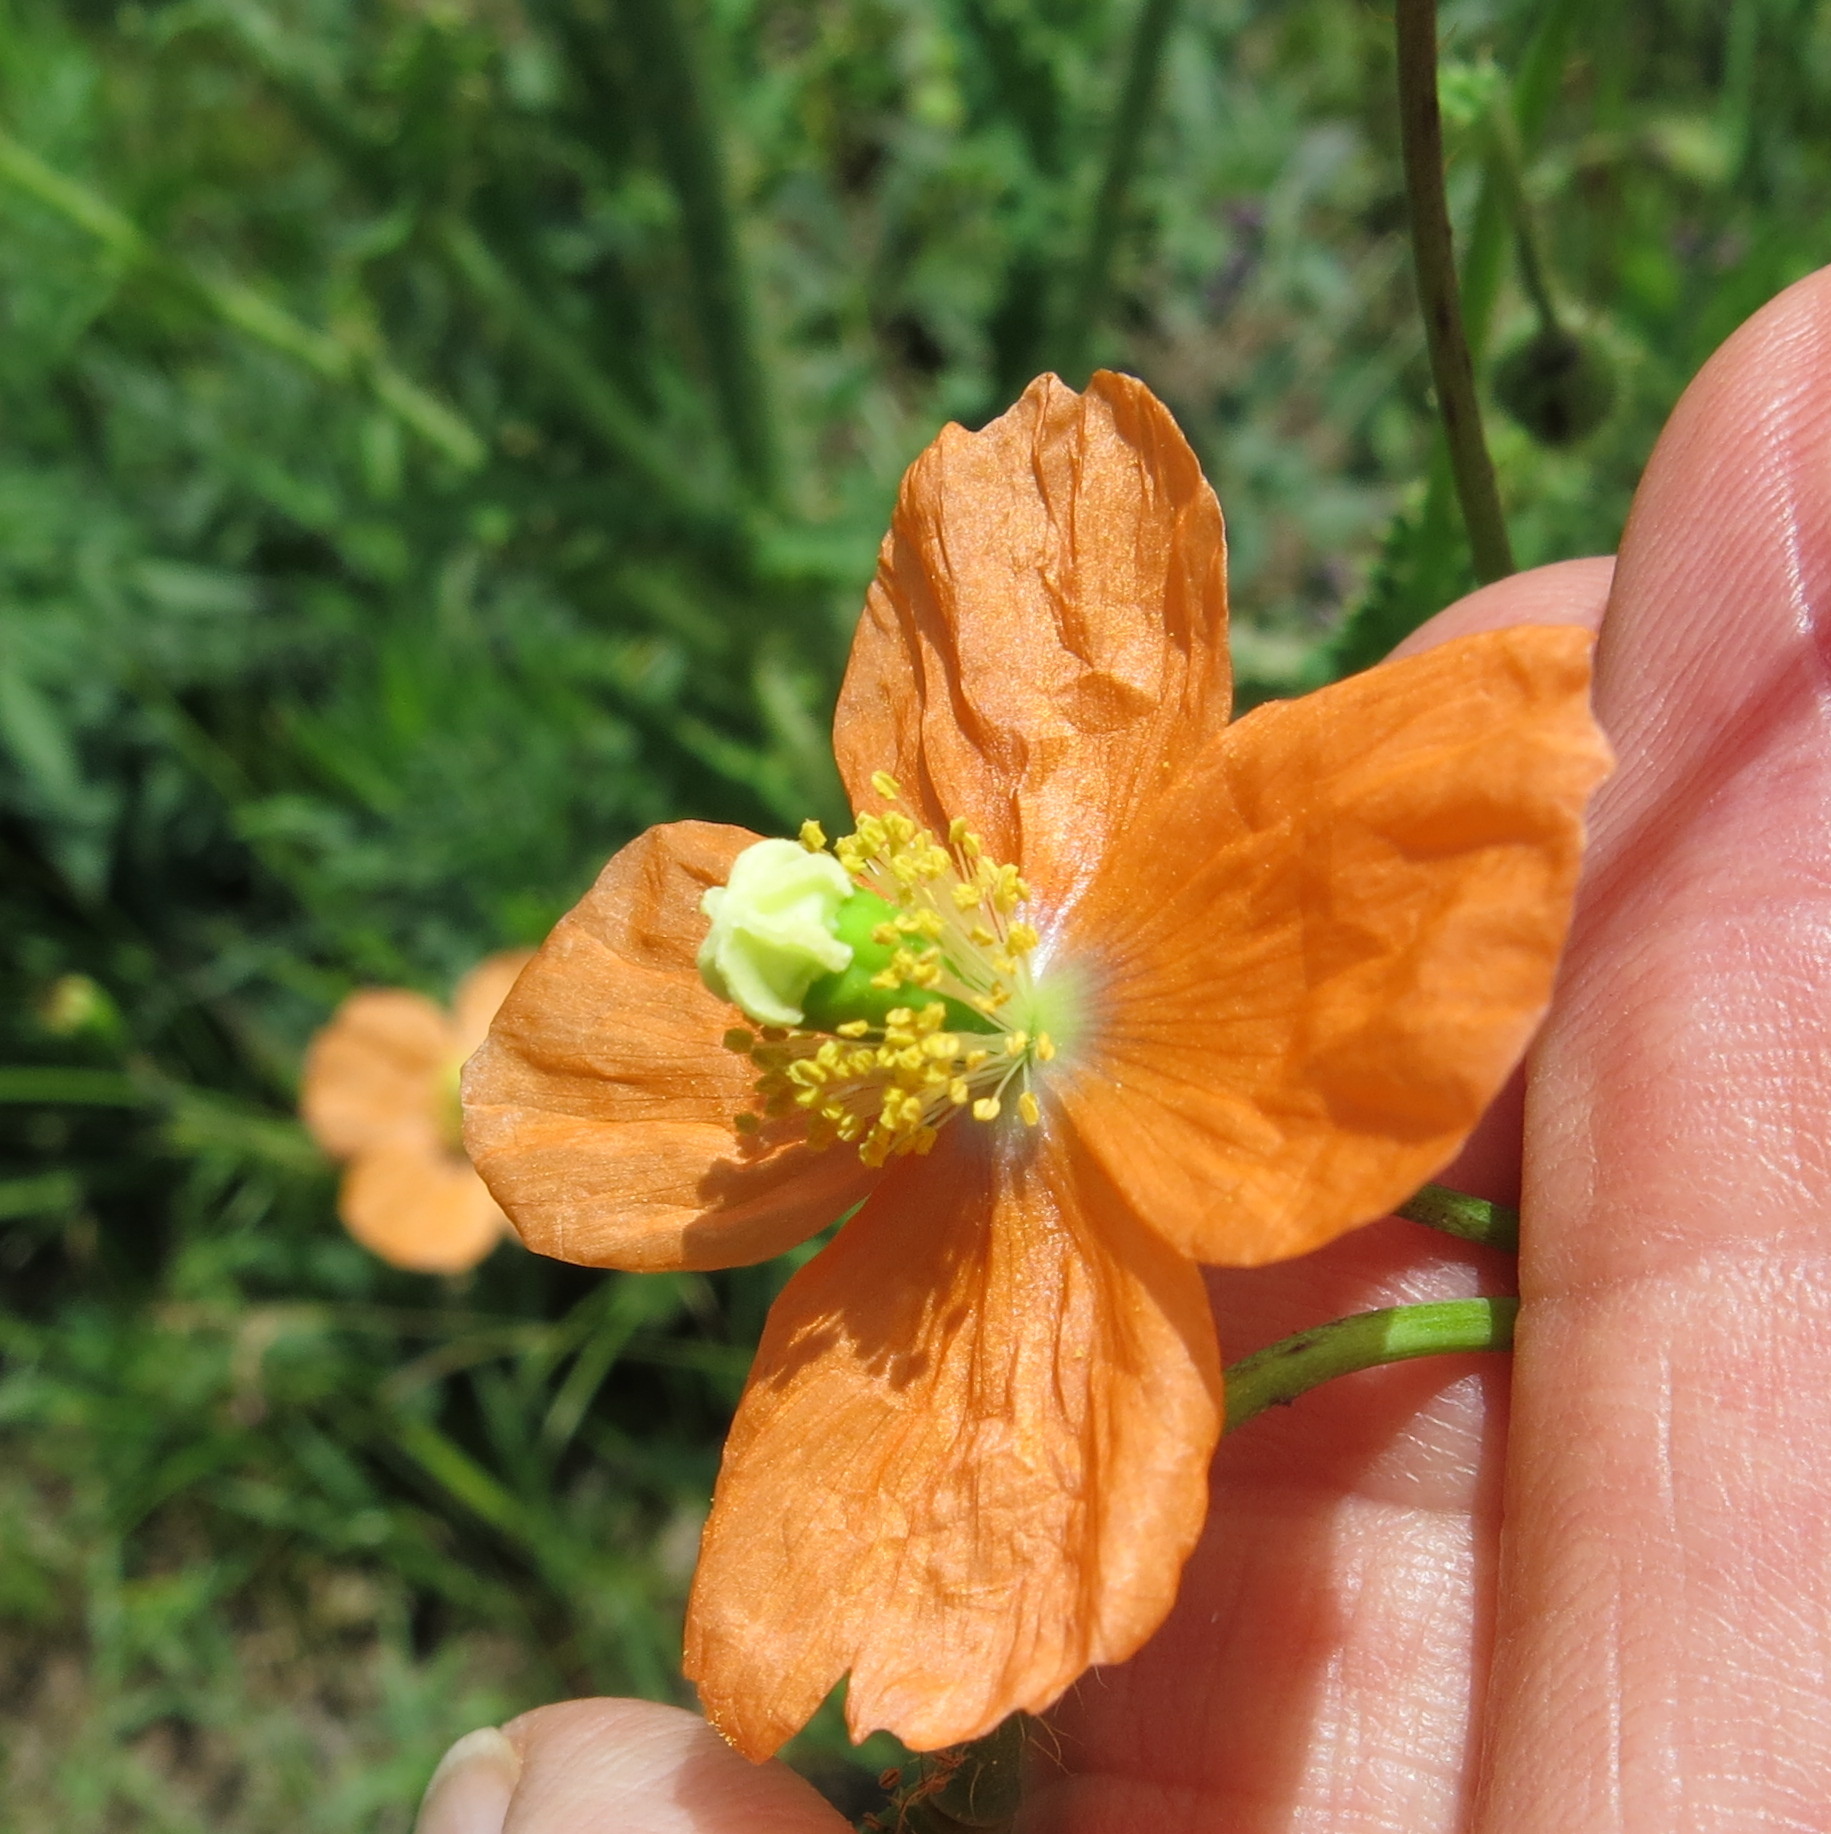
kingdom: Plantae
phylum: Tracheophyta
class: Magnoliopsida
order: Ranunculales
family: Papaveraceae
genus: Papaver
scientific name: Papaver aculeatum
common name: Bristle poppy
